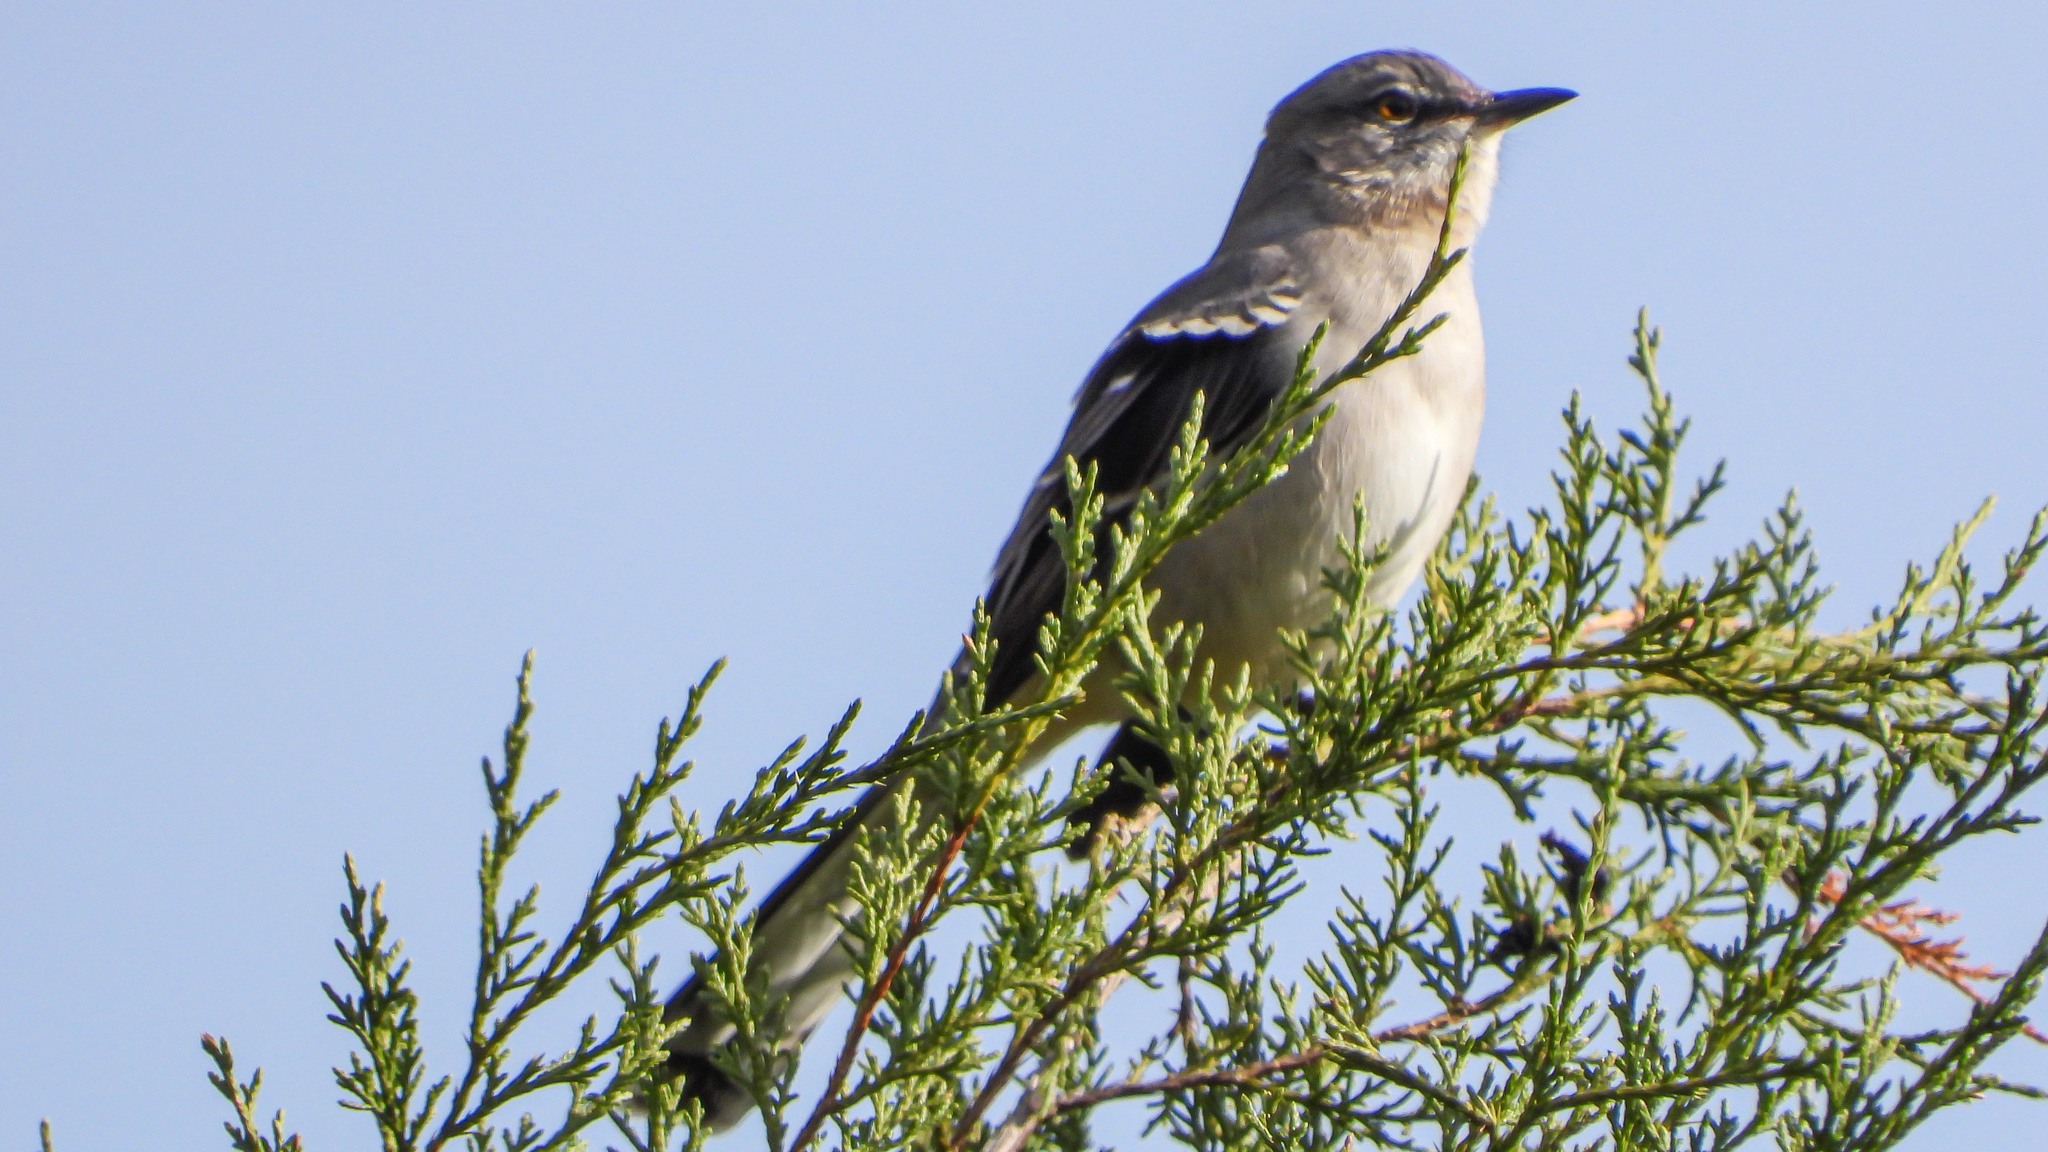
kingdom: Animalia
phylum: Chordata
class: Aves
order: Passeriformes
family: Mimidae
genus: Mimus
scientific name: Mimus polyglottos
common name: Northern mockingbird
